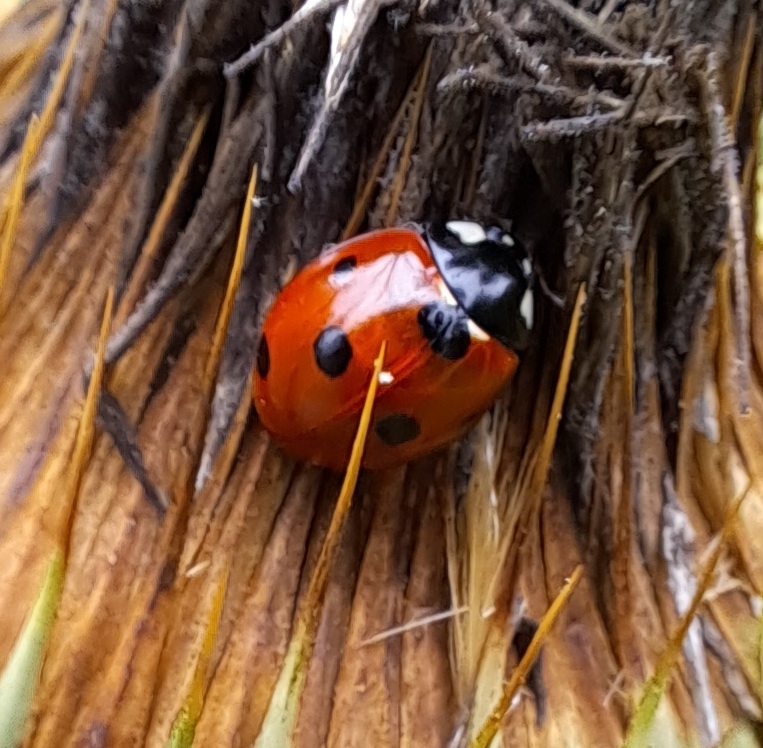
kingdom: Animalia
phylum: Arthropoda
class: Insecta
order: Coleoptera
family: Coccinellidae
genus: Coccinella
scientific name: Coccinella septempunctata
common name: Sevenspotted lady beetle
